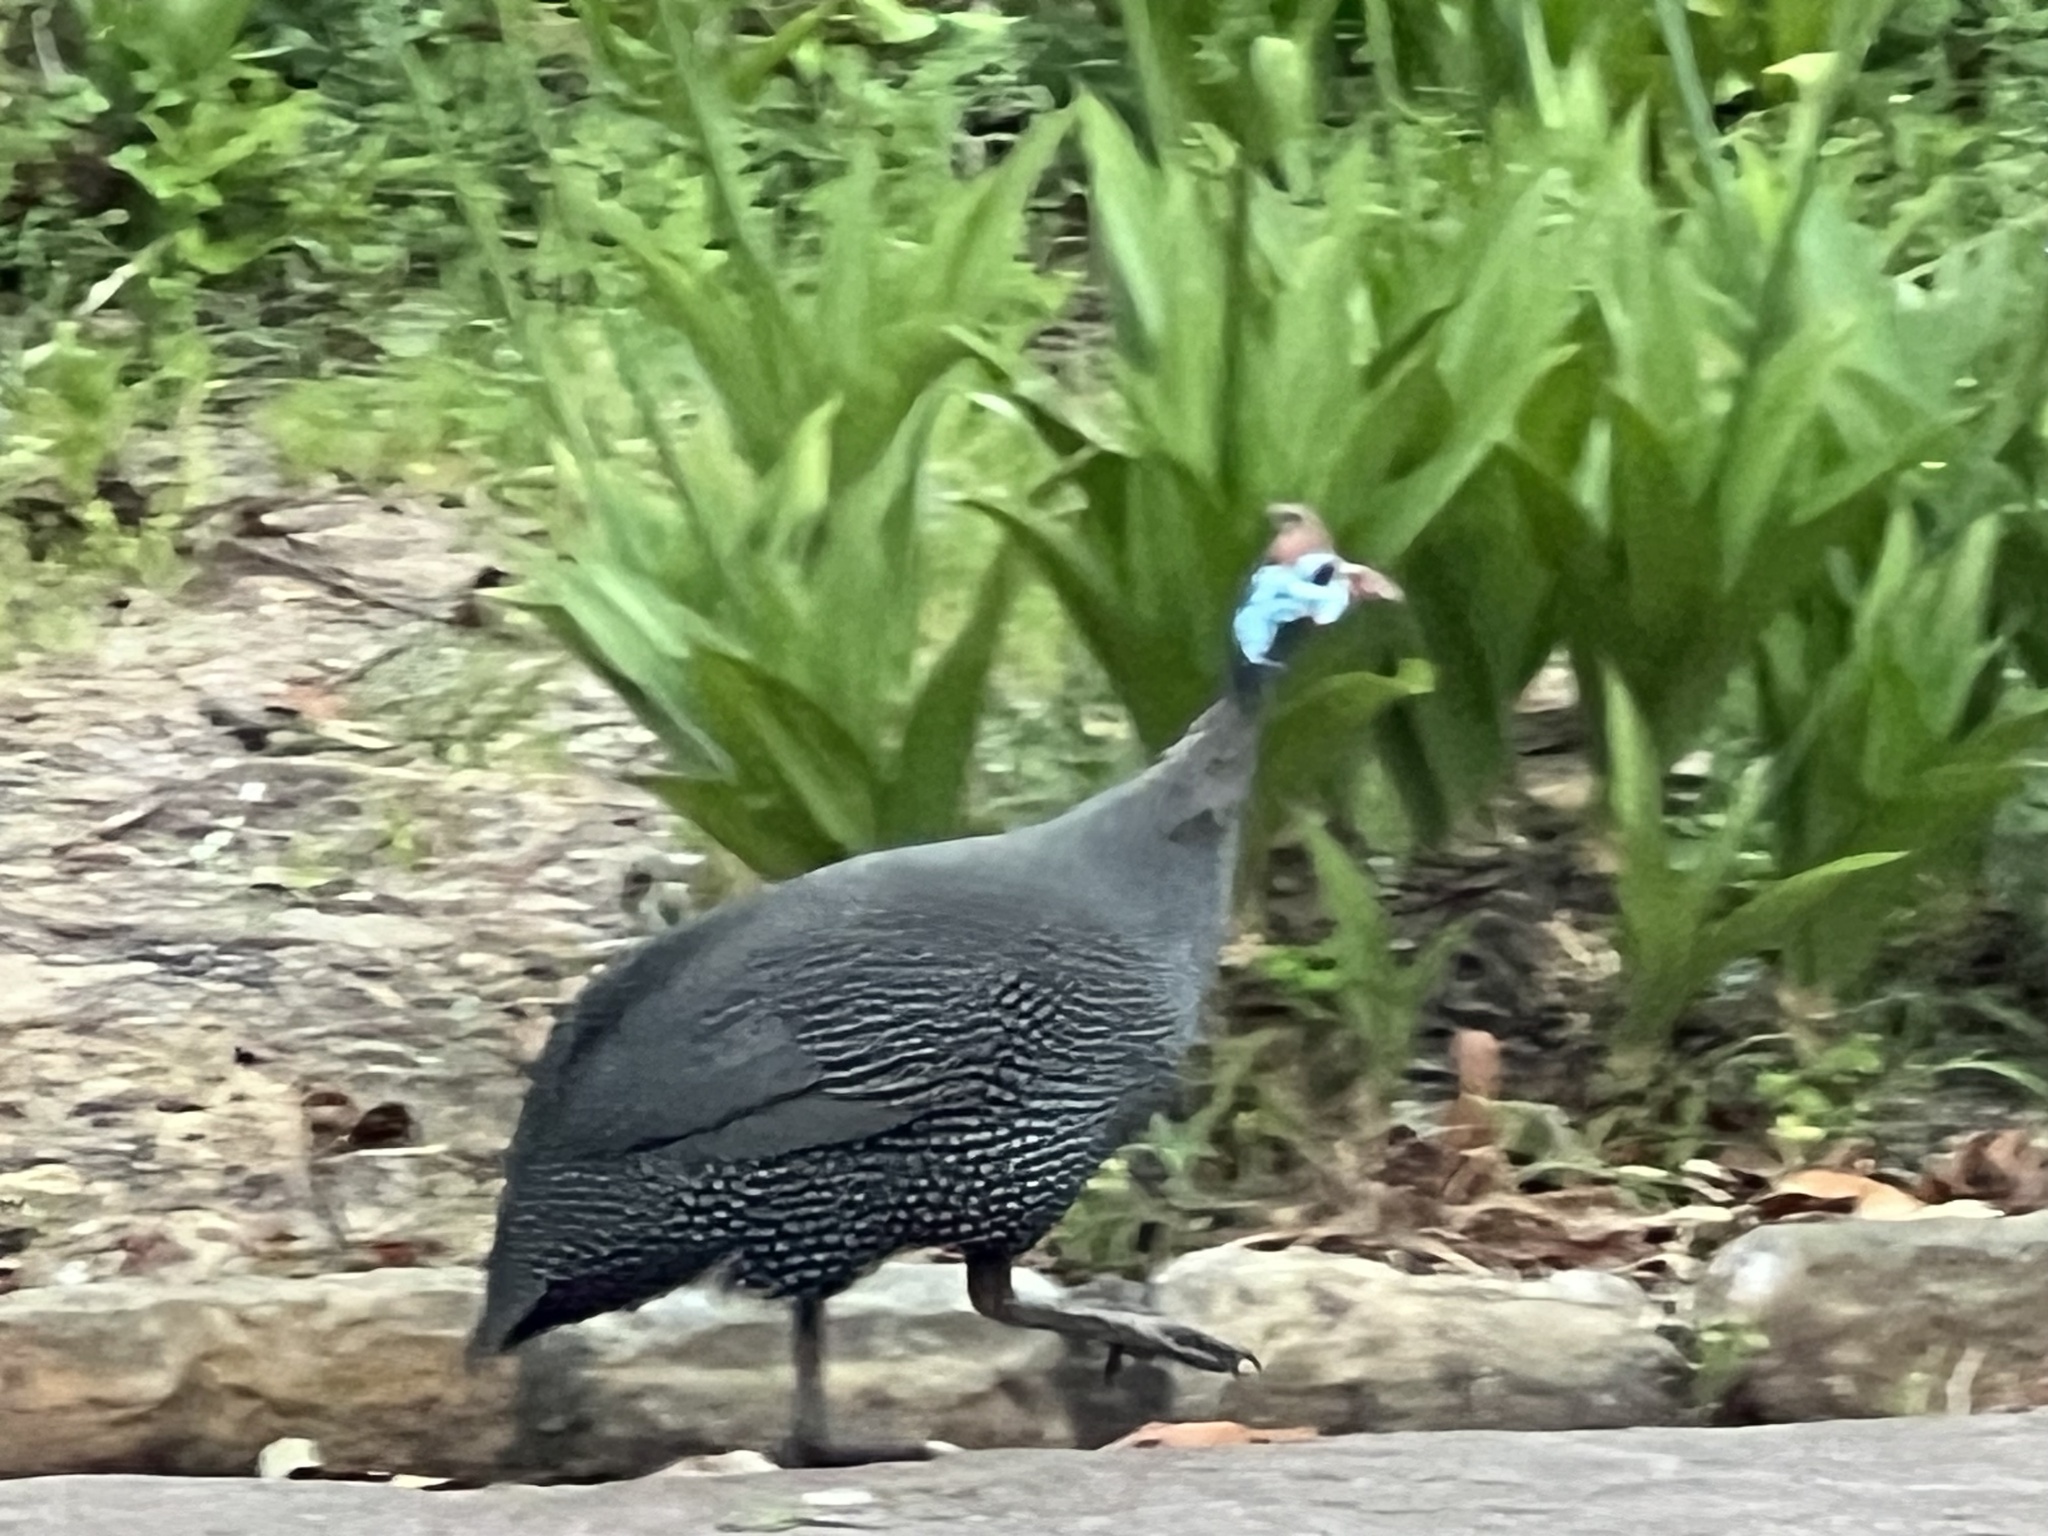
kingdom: Animalia
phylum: Chordata
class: Aves
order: Galliformes
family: Numididae
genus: Numida
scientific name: Numida meleagris
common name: Helmeted guineafowl
